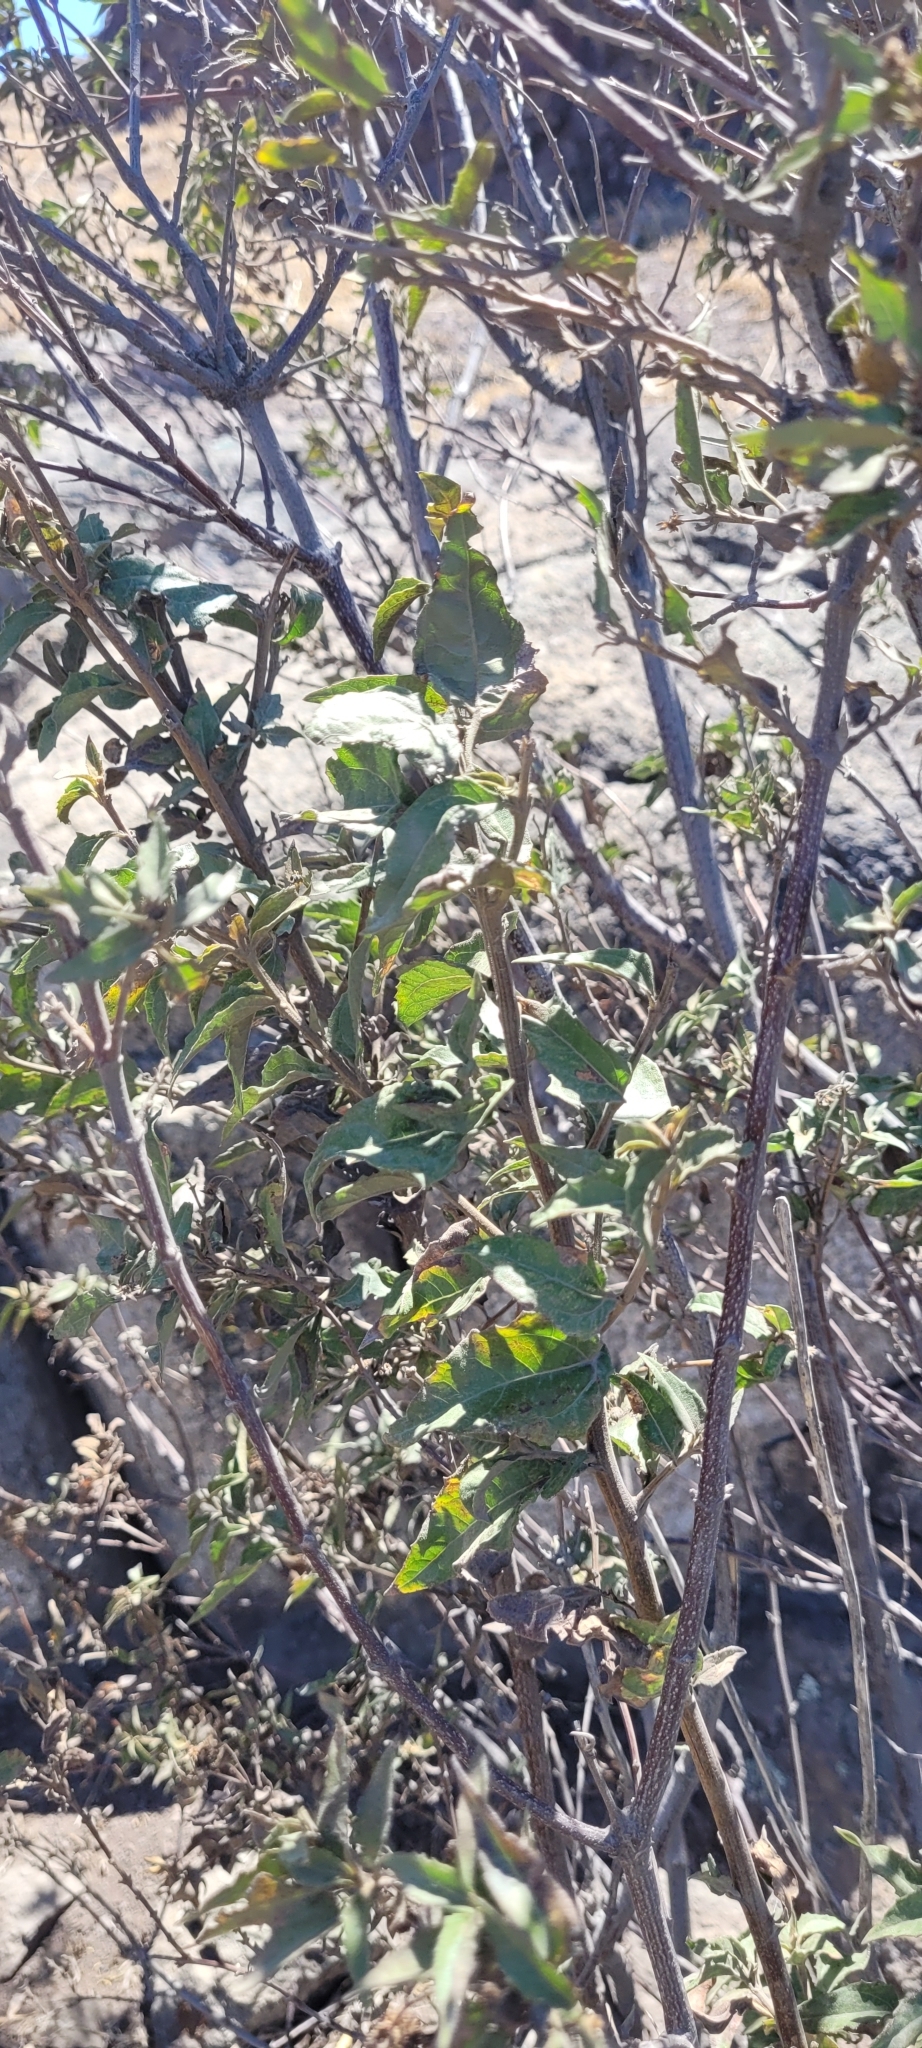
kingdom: Plantae
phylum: Tracheophyta
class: Magnoliopsida
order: Asterales
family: Asteraceae
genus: Podanthus
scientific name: Podanthus mitiqui
